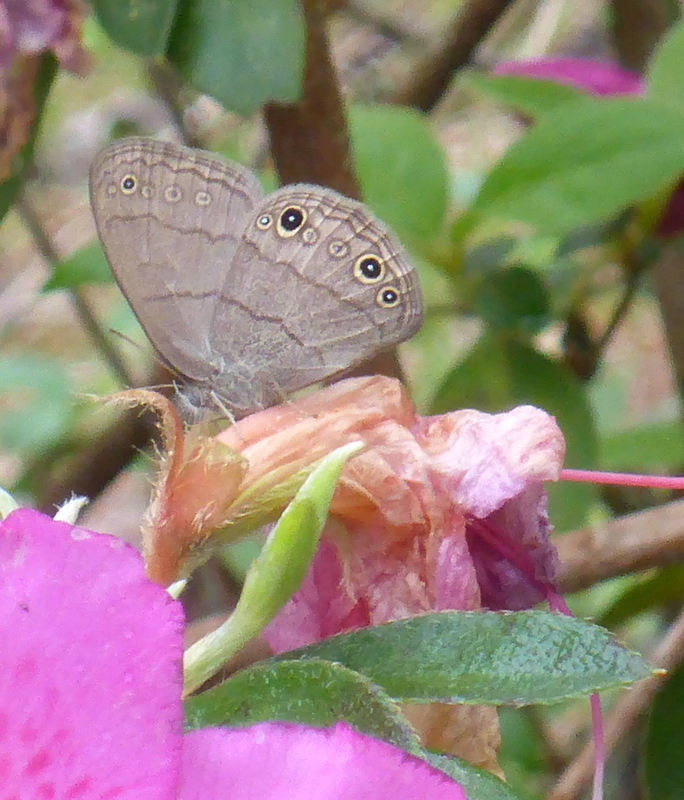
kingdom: Animalia
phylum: Arthropoda
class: Insecta
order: Lepidoptera
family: Nymphalidae
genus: Hermeuptychia
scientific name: Hermeuptychia hermes
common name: Hermes satyr
